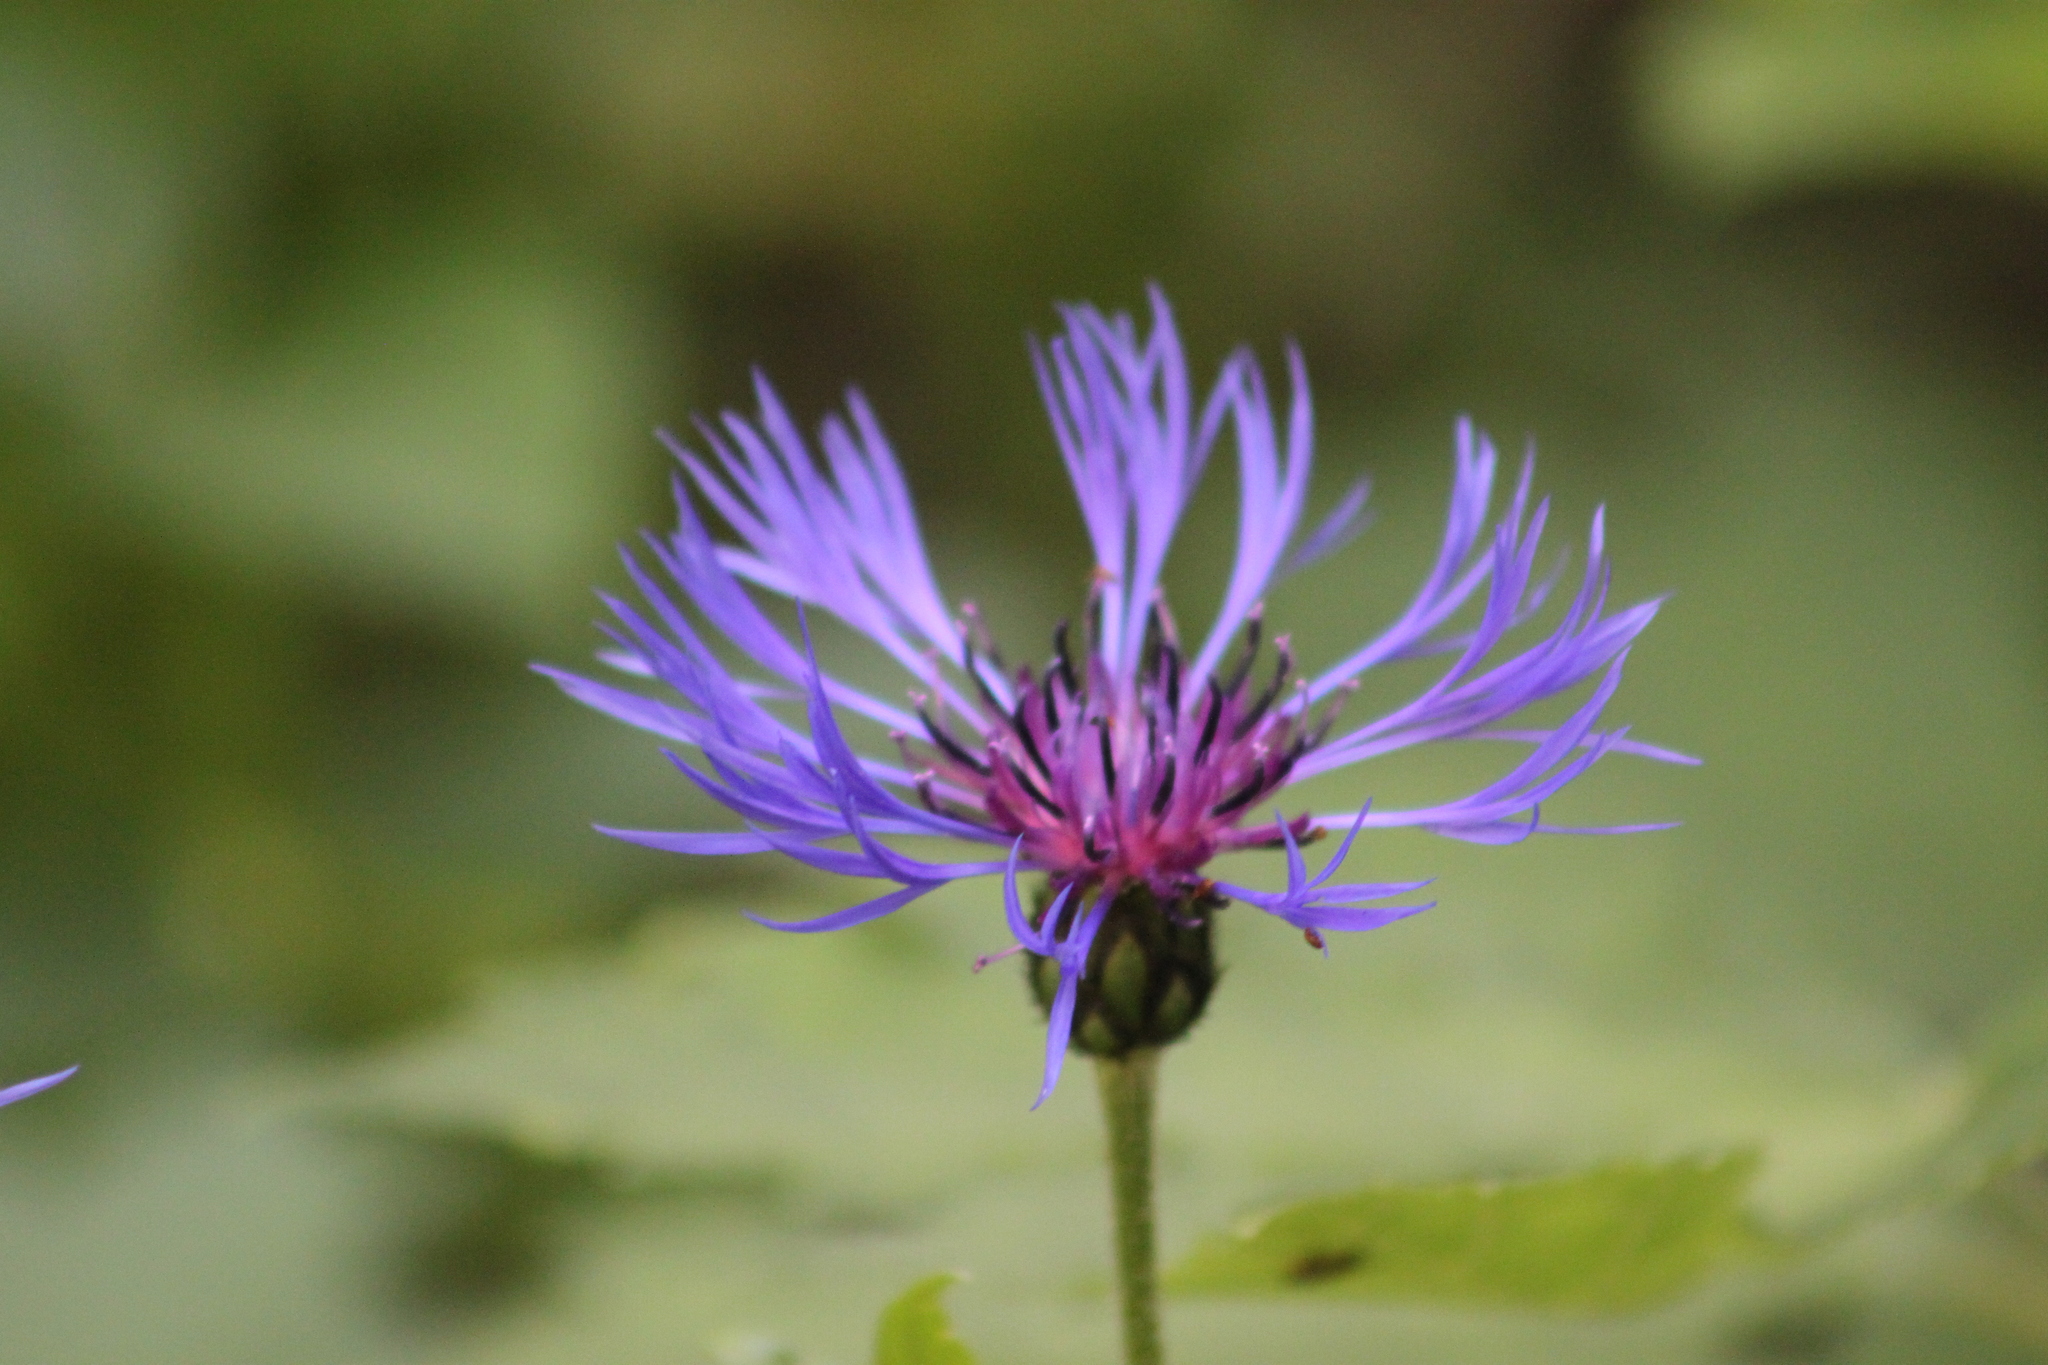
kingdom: Plantae
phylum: Tracheophyta
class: Magnoliopsida
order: Asterales
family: Asteraceae
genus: Centaurea
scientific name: Centaurea montana
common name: Perennial cornflower
